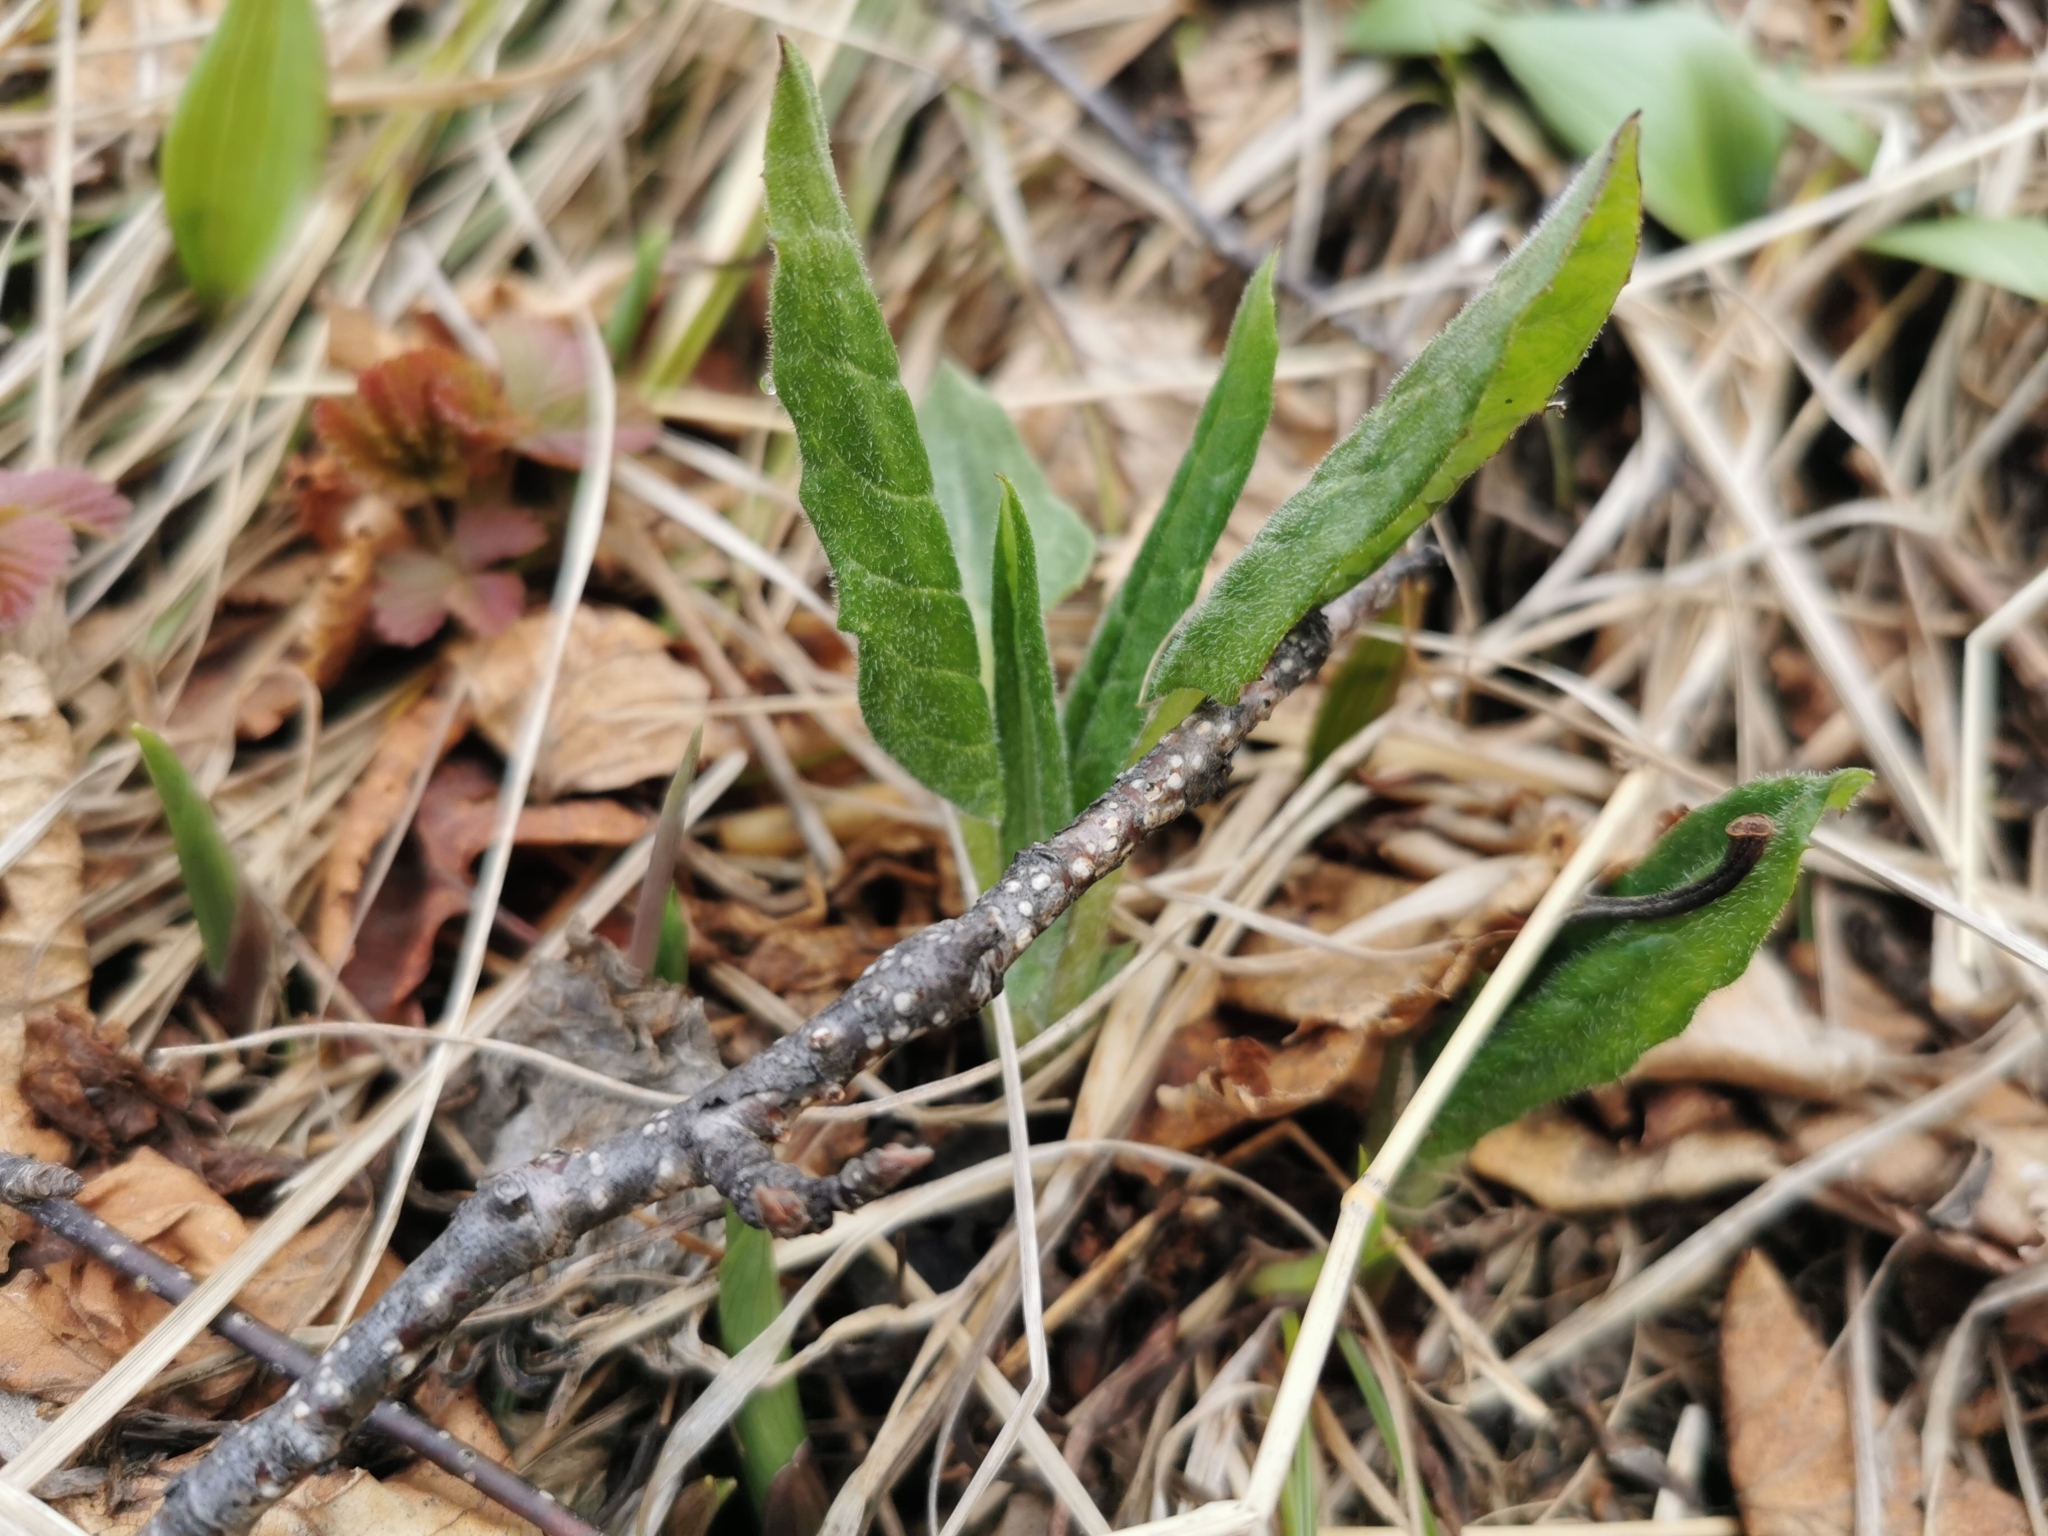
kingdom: Plantae
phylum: Tracheophyta
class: Magnoliopsida
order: Asterales
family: Asteraceae
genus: Saussurea
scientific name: Saussurea pseudotilesii
